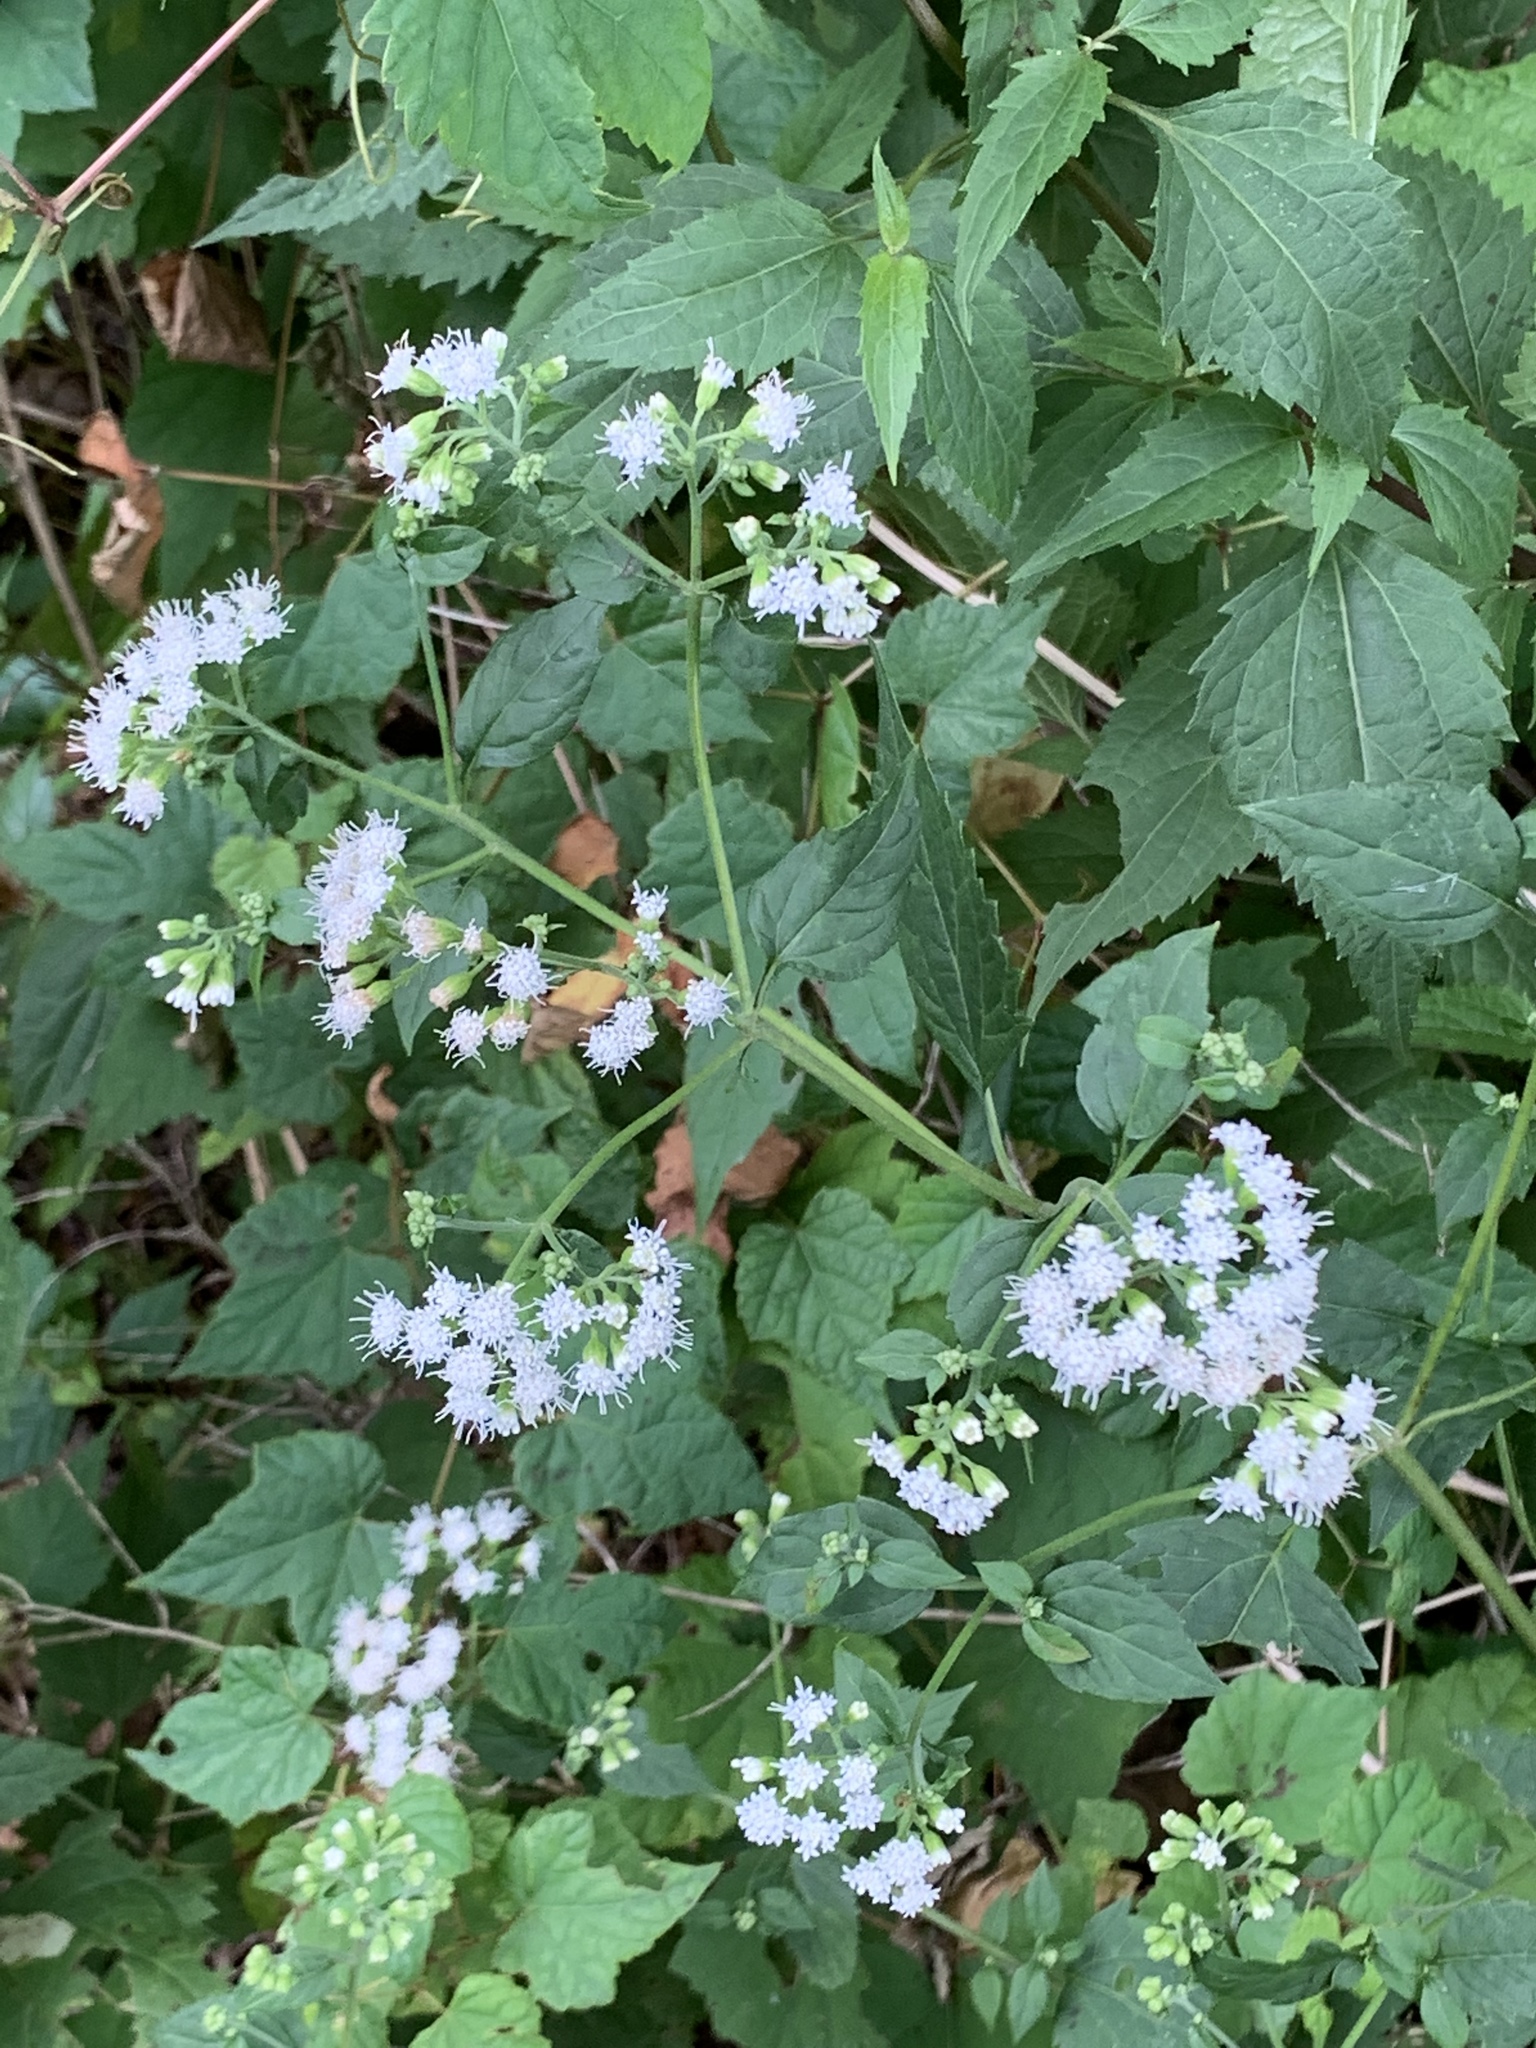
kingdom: Plantae
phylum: Tracheophyta
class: Magnoliopsida
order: Asterales
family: Asteraceae
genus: Ageratina
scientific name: Ageratina altissima
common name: White snakeroot
